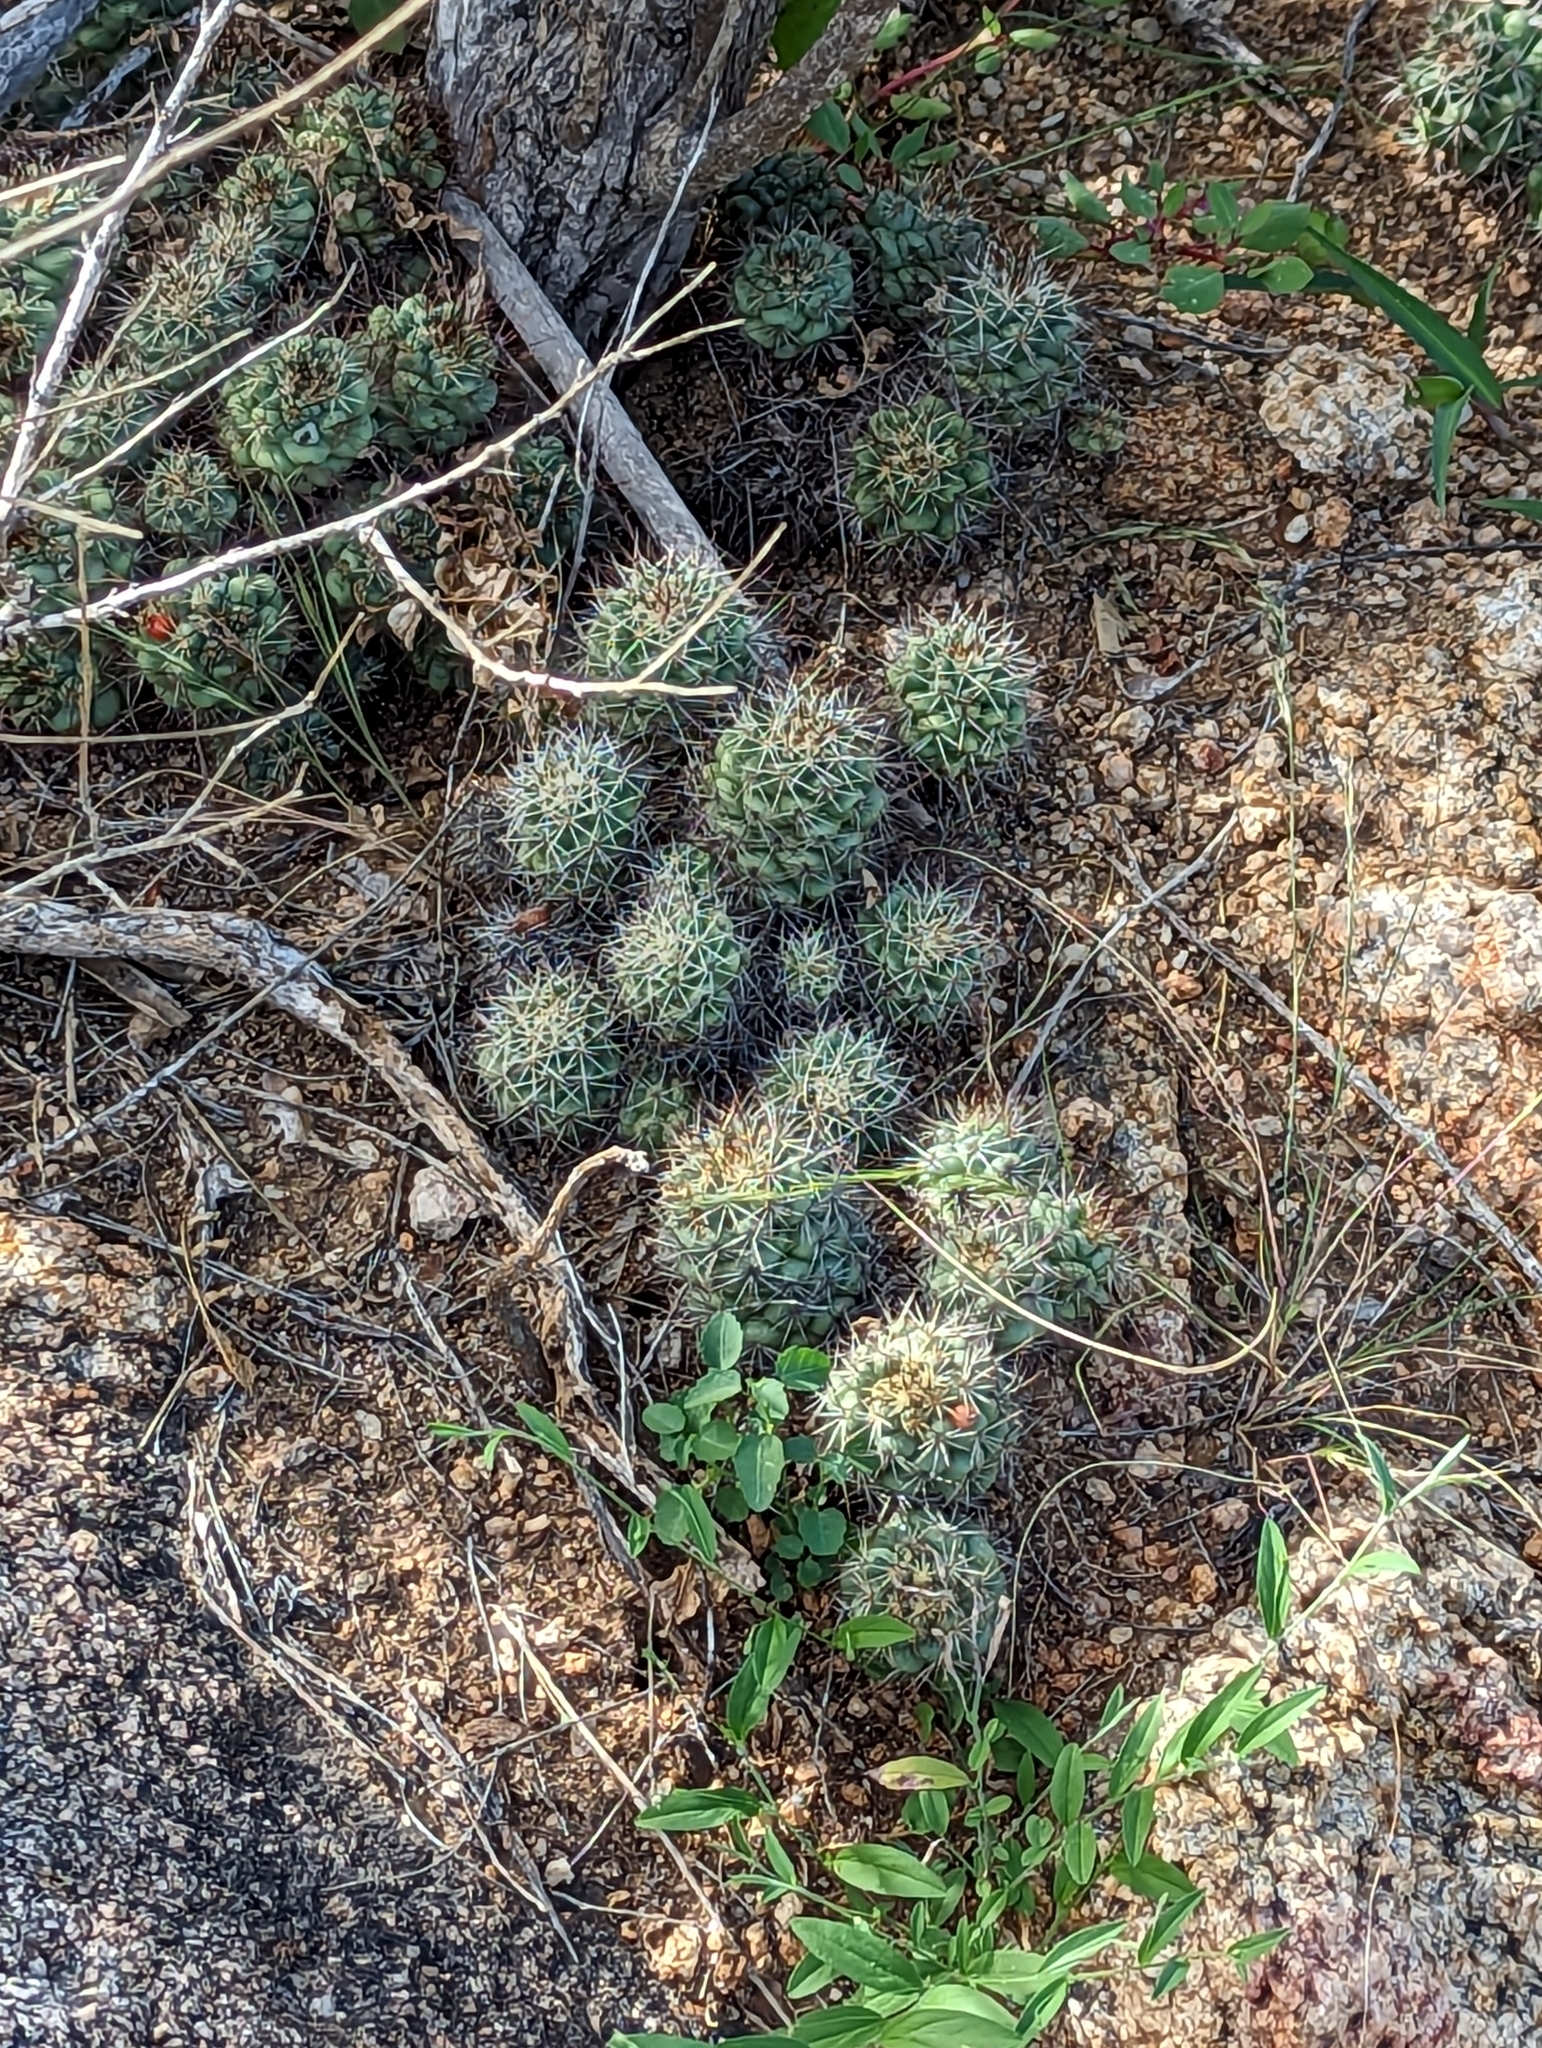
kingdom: Plantae
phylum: Tracheophyta
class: Magnoliopsida
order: Caryophyllales
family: Cactaceae
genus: Cochemiea
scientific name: Cochemiea schumannii
